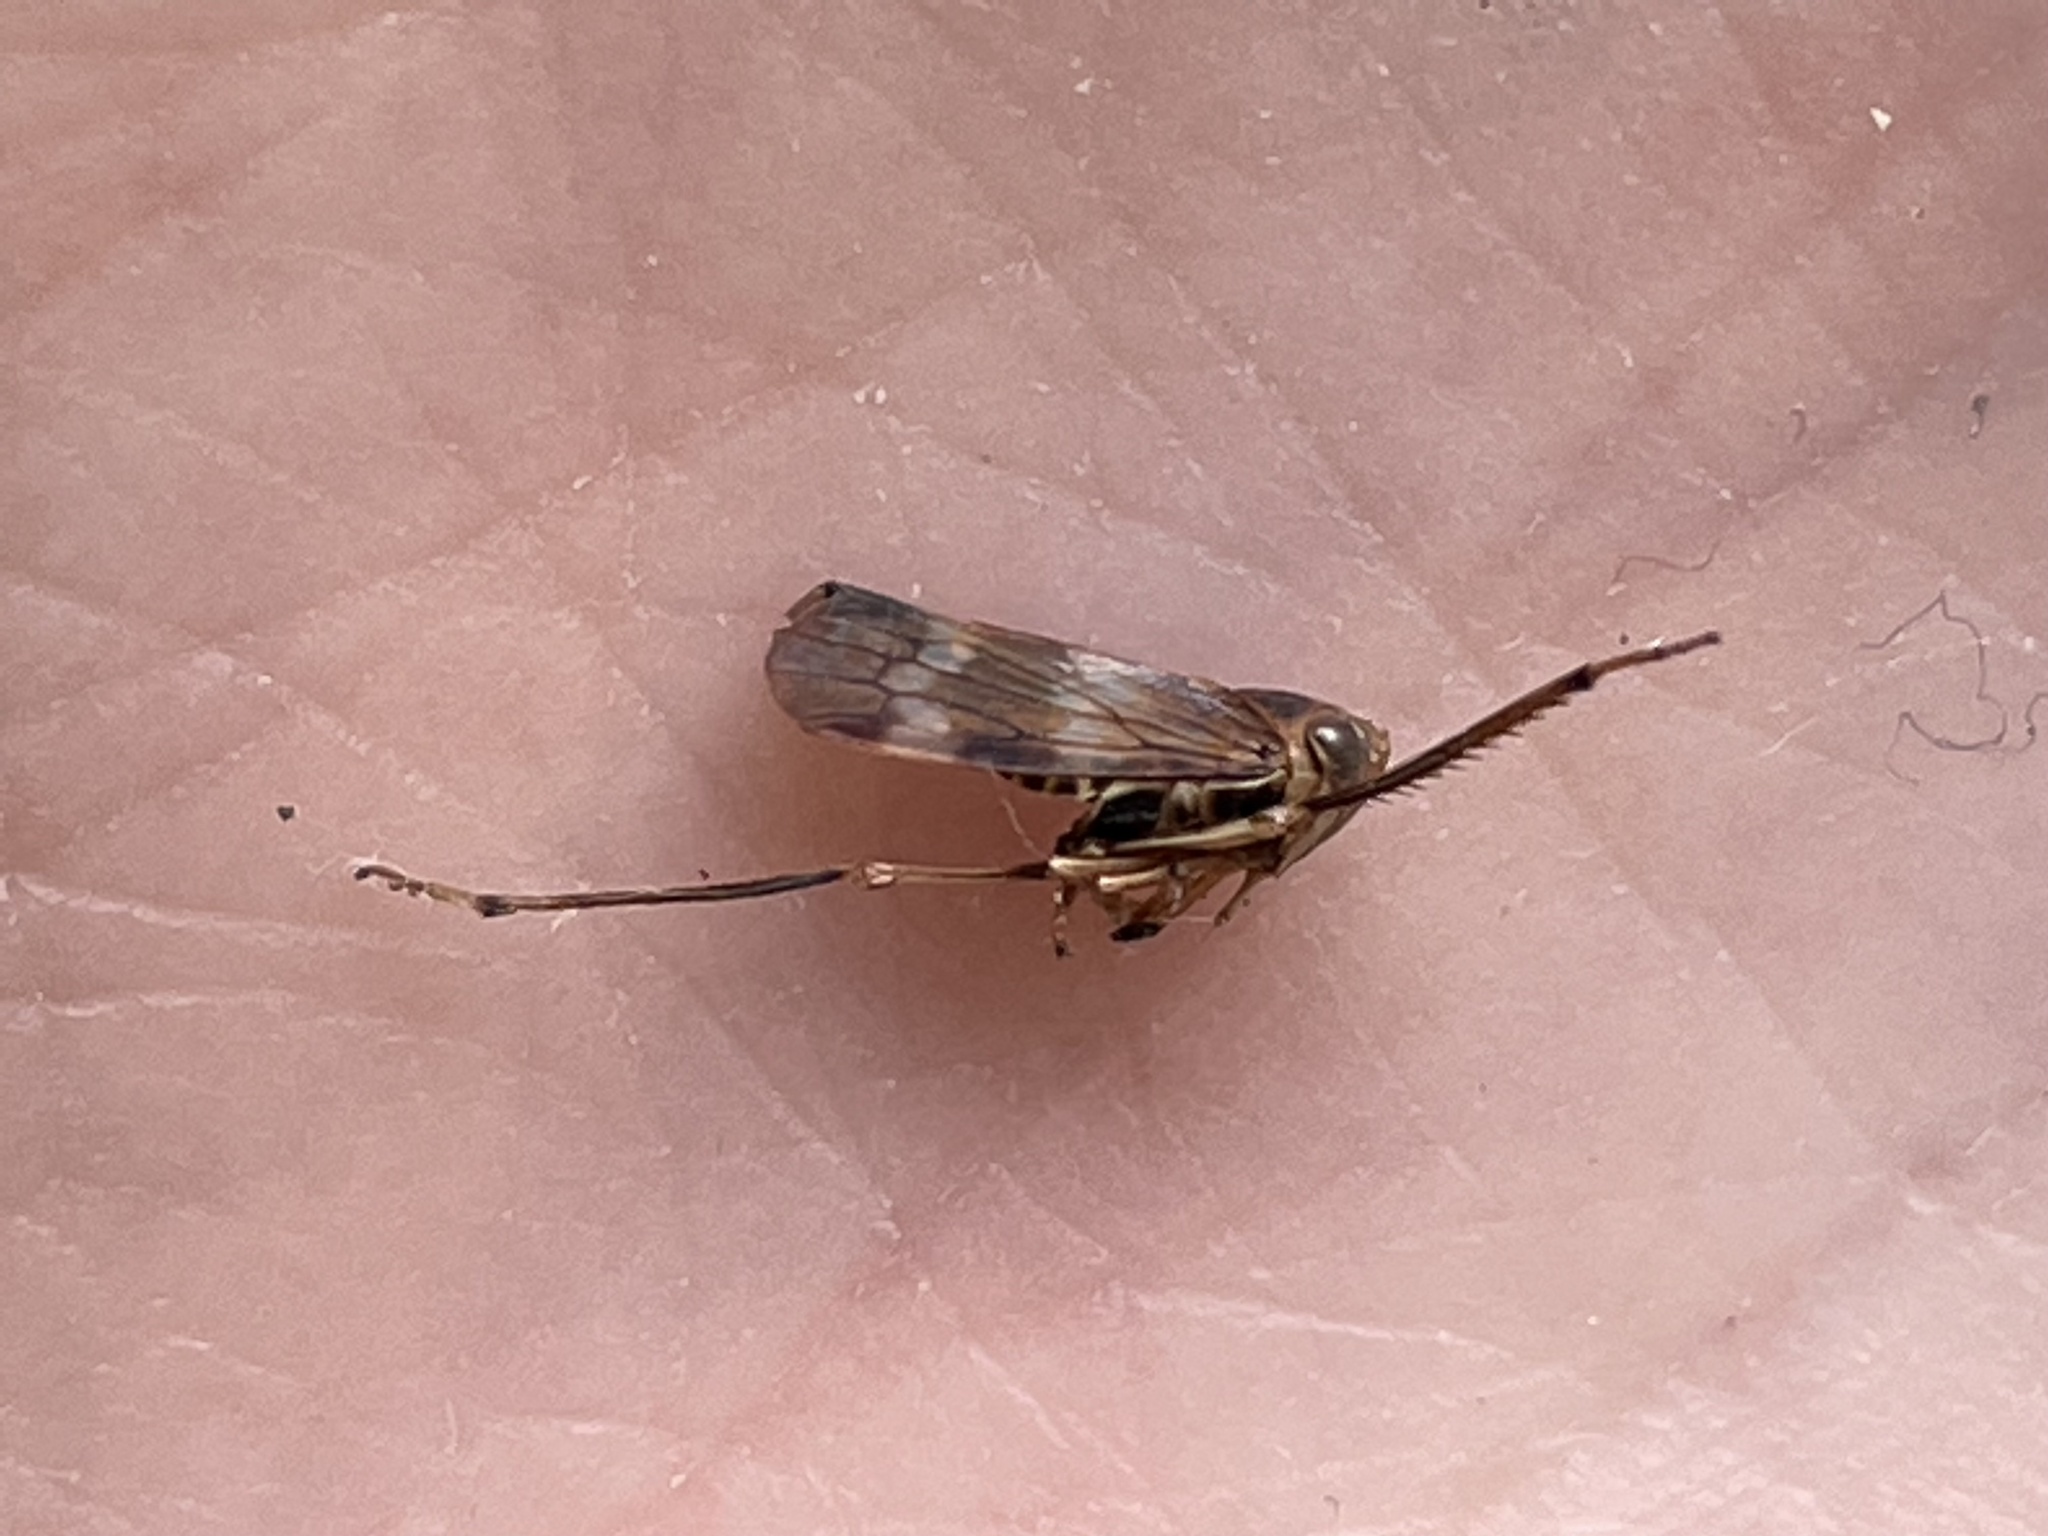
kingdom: Animalia
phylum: Arthropoda
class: Insecta
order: Hemiptera
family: Cicadellidae
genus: Jikradia
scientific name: Jikradia olitoria
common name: Coppery leafhopper
